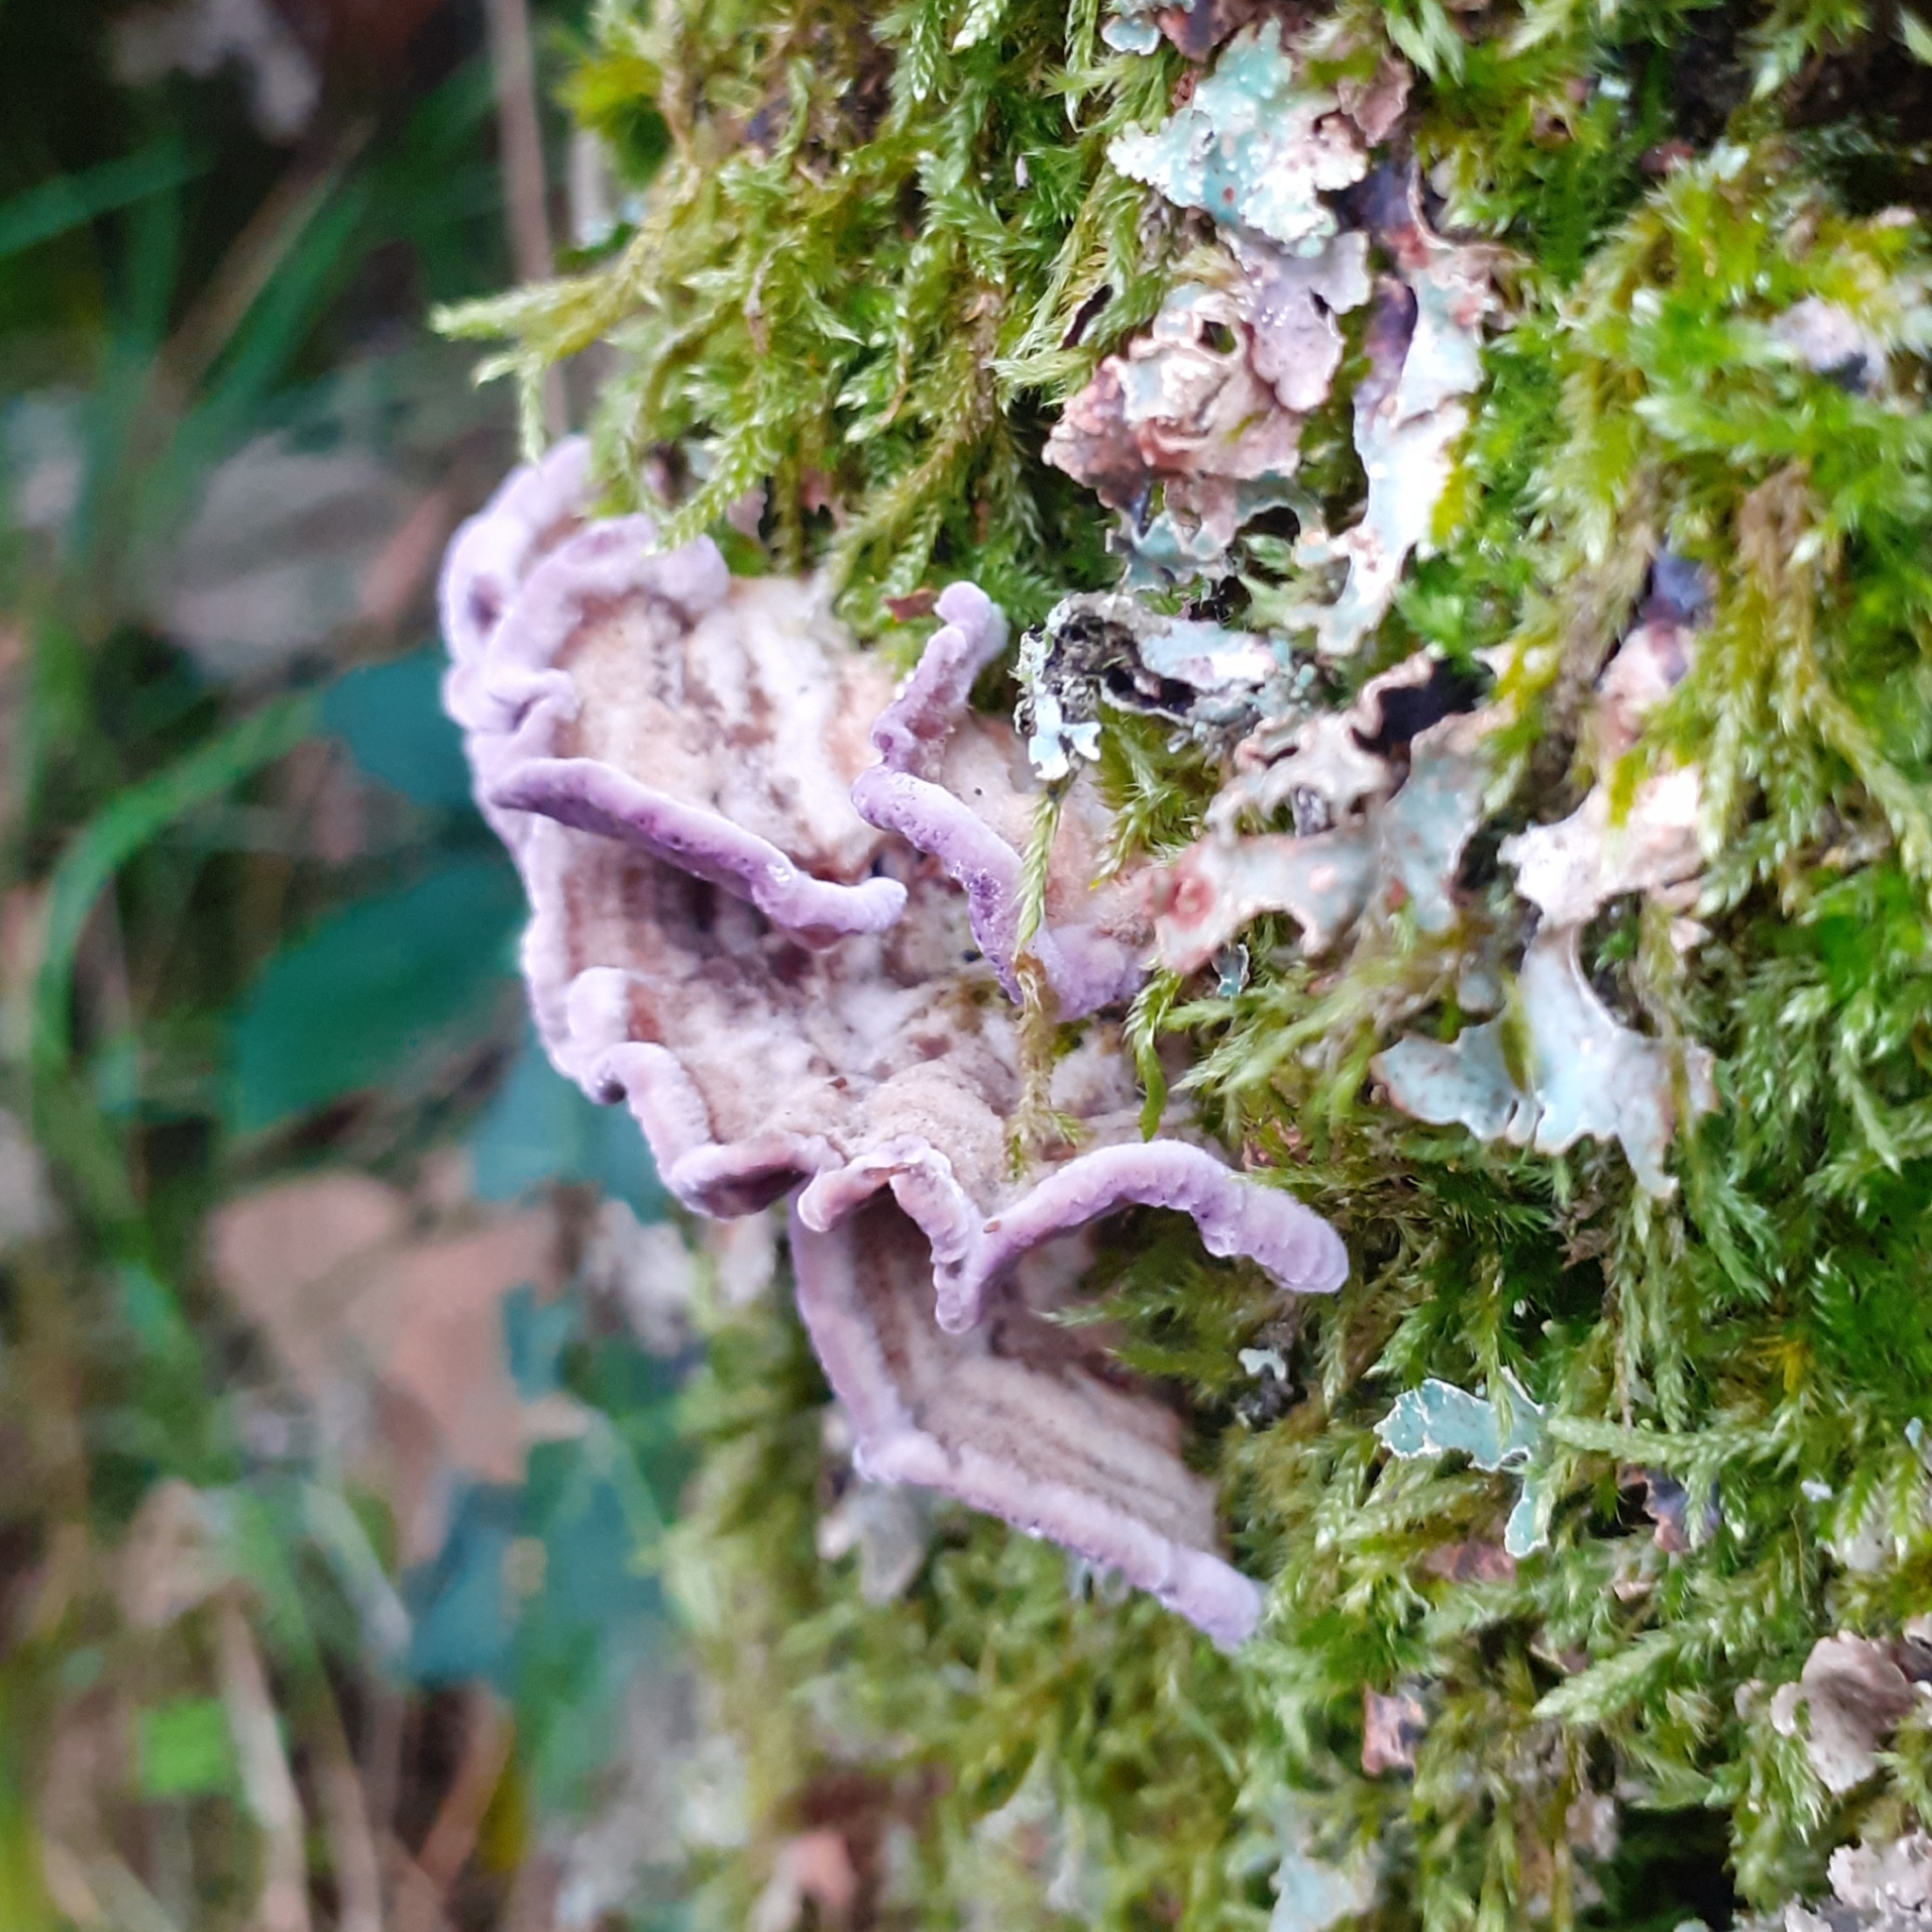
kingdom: Fungi
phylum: Basidiomycota
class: Agaricomycetes
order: Agaricales
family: Cyphellaceae
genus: Chondrostereum
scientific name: Chondrostereum purpureum
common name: Silver leaf disease
